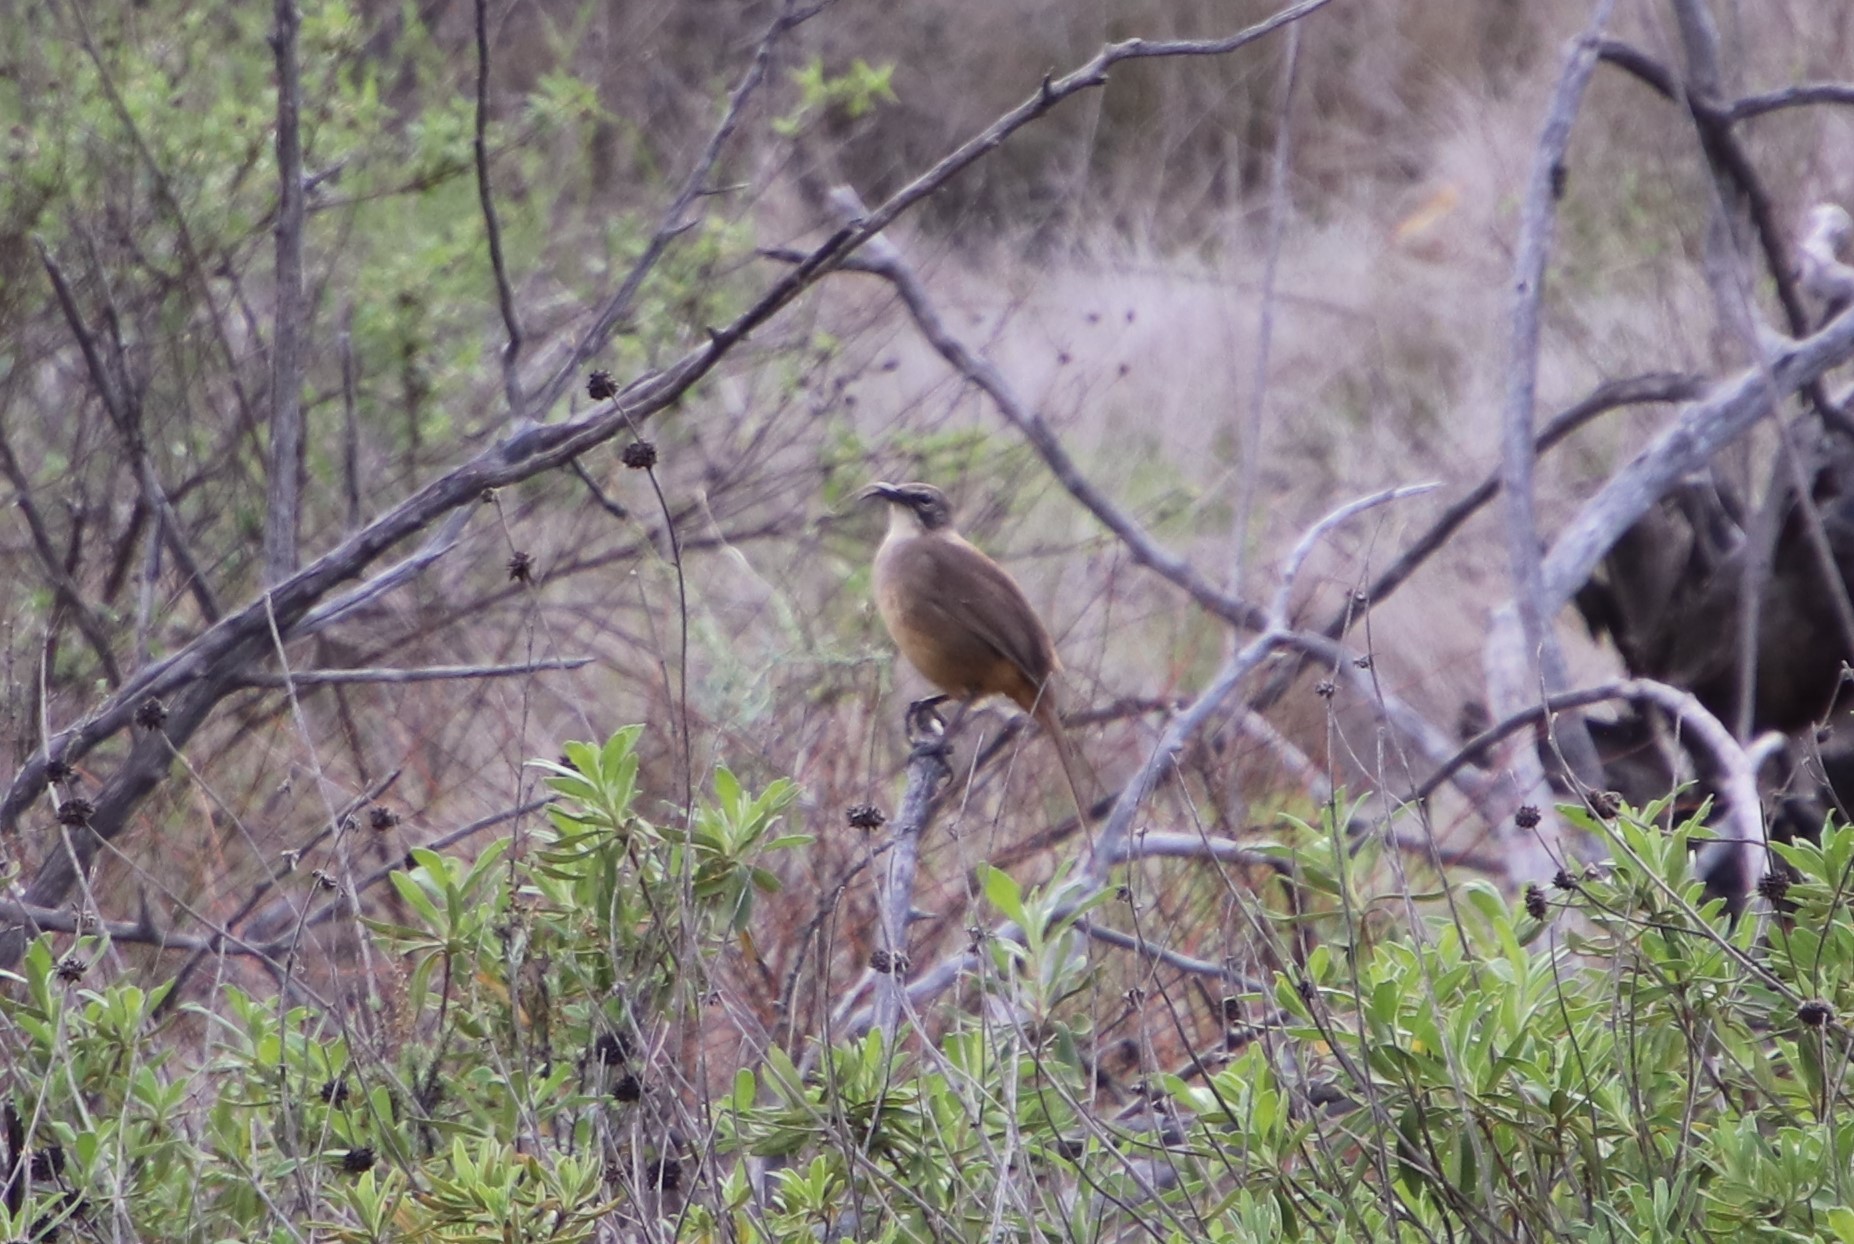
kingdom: Animalia
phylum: Chordata
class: Aves
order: Passeriformes
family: Mimidae
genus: Toxostoma
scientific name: Toxostoma redivivum
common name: California thrasher
